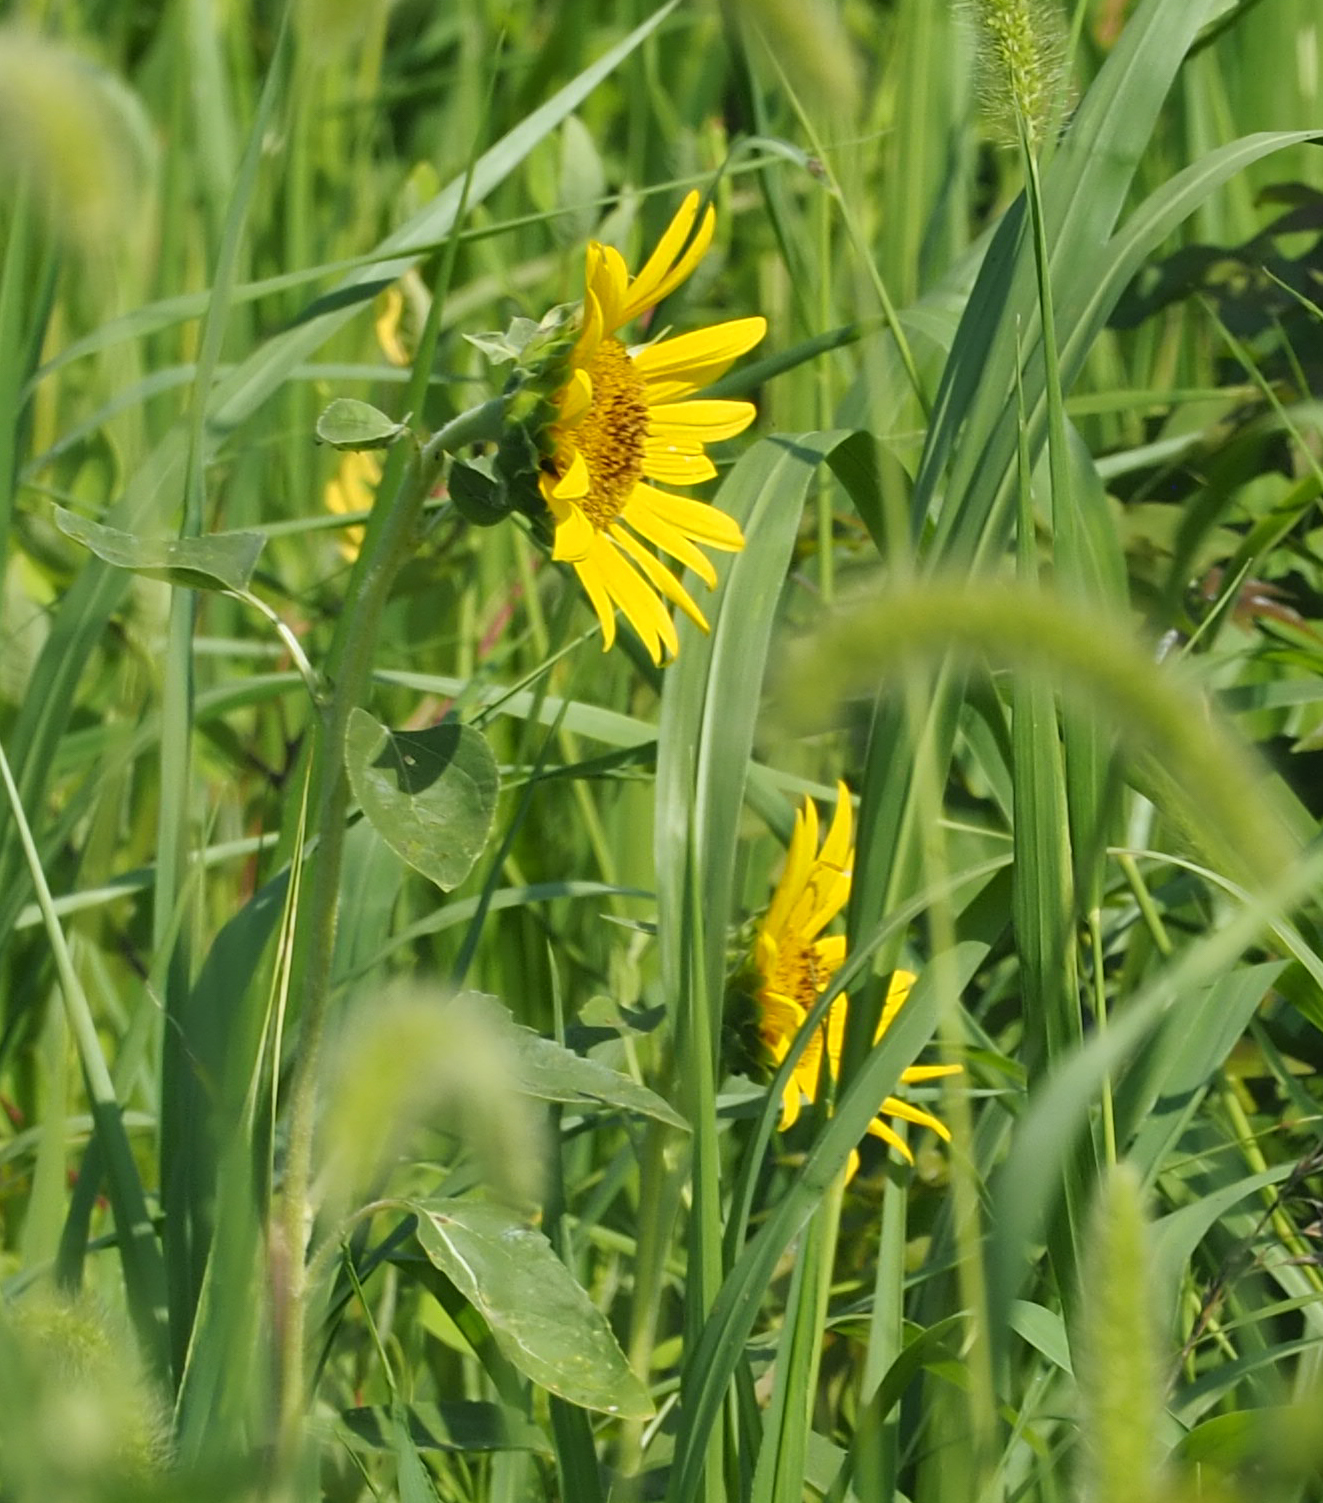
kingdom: Plantae
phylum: Tracheophyta
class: Magnoliopsida
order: Asterales
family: Asteraceae
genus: Helianthus
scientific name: Helianthus annuus
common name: Sunflower
